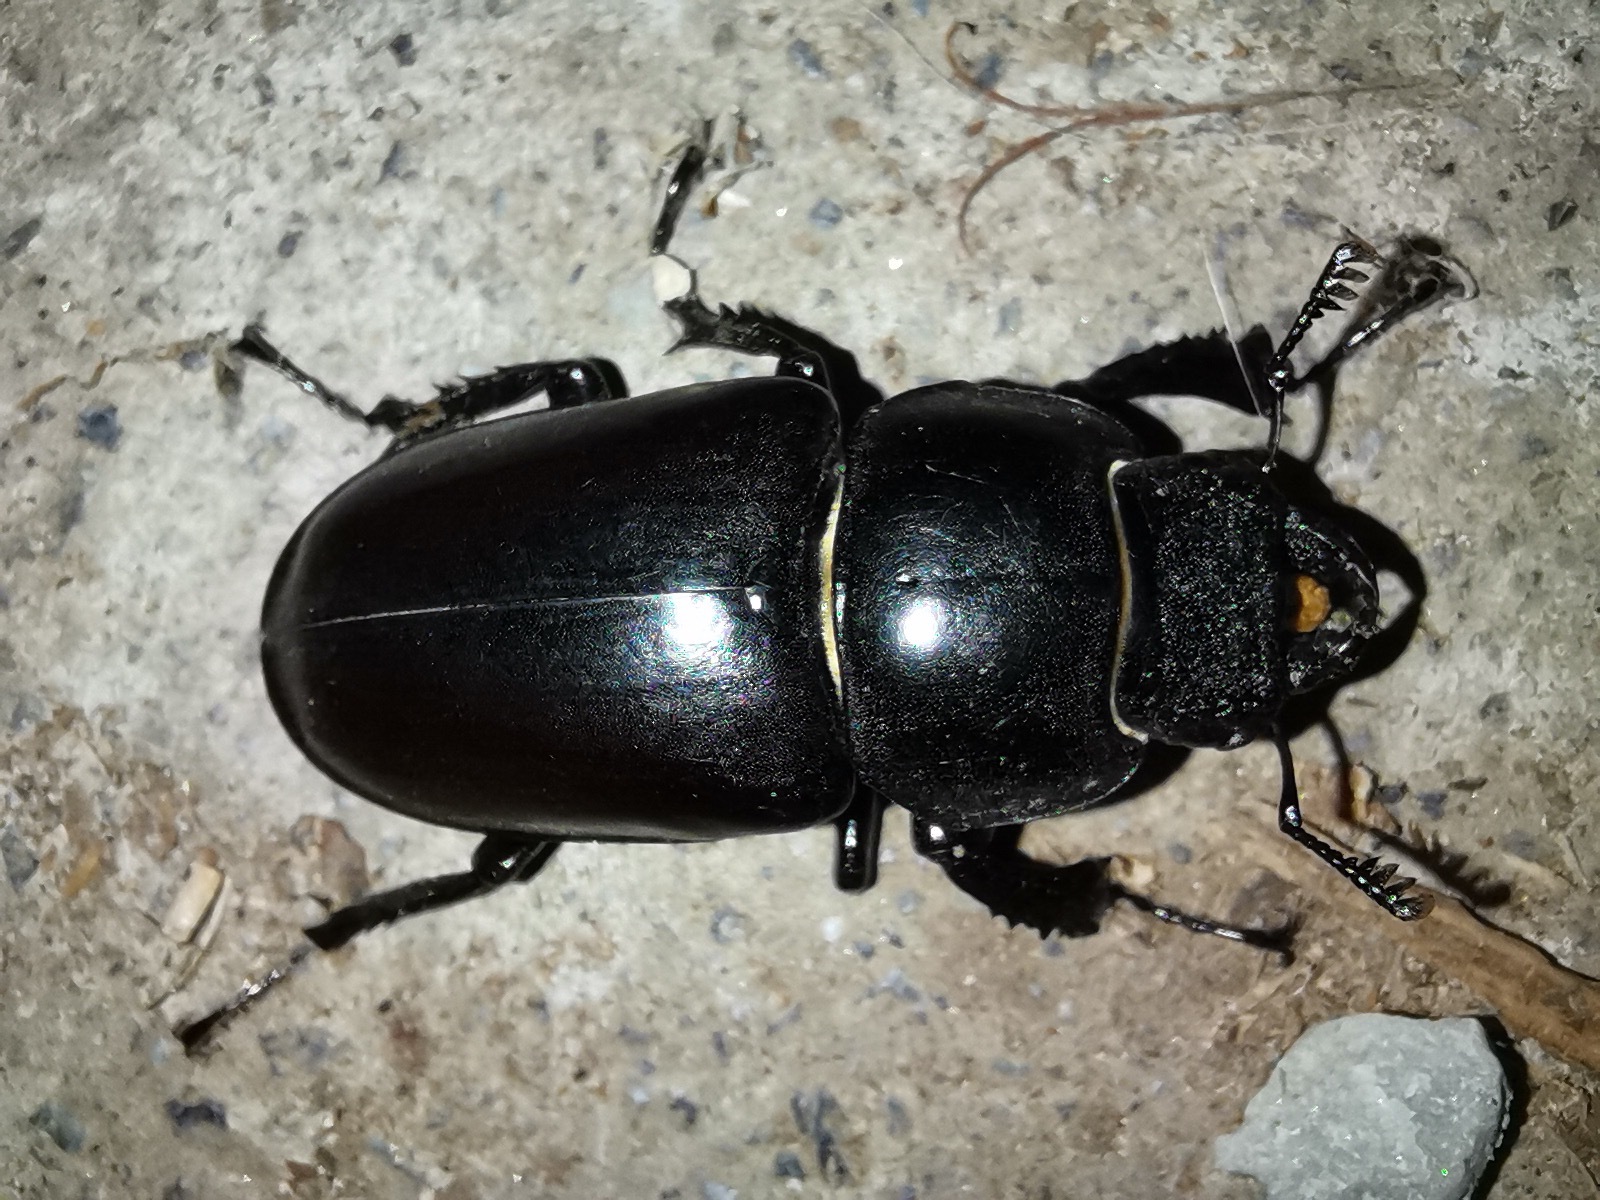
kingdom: Animalia
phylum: Arthropoda
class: Insecta
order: Coleoptera
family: Lucanidae
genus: Lucanus
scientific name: Lucanus cervus
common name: Stag beetle
